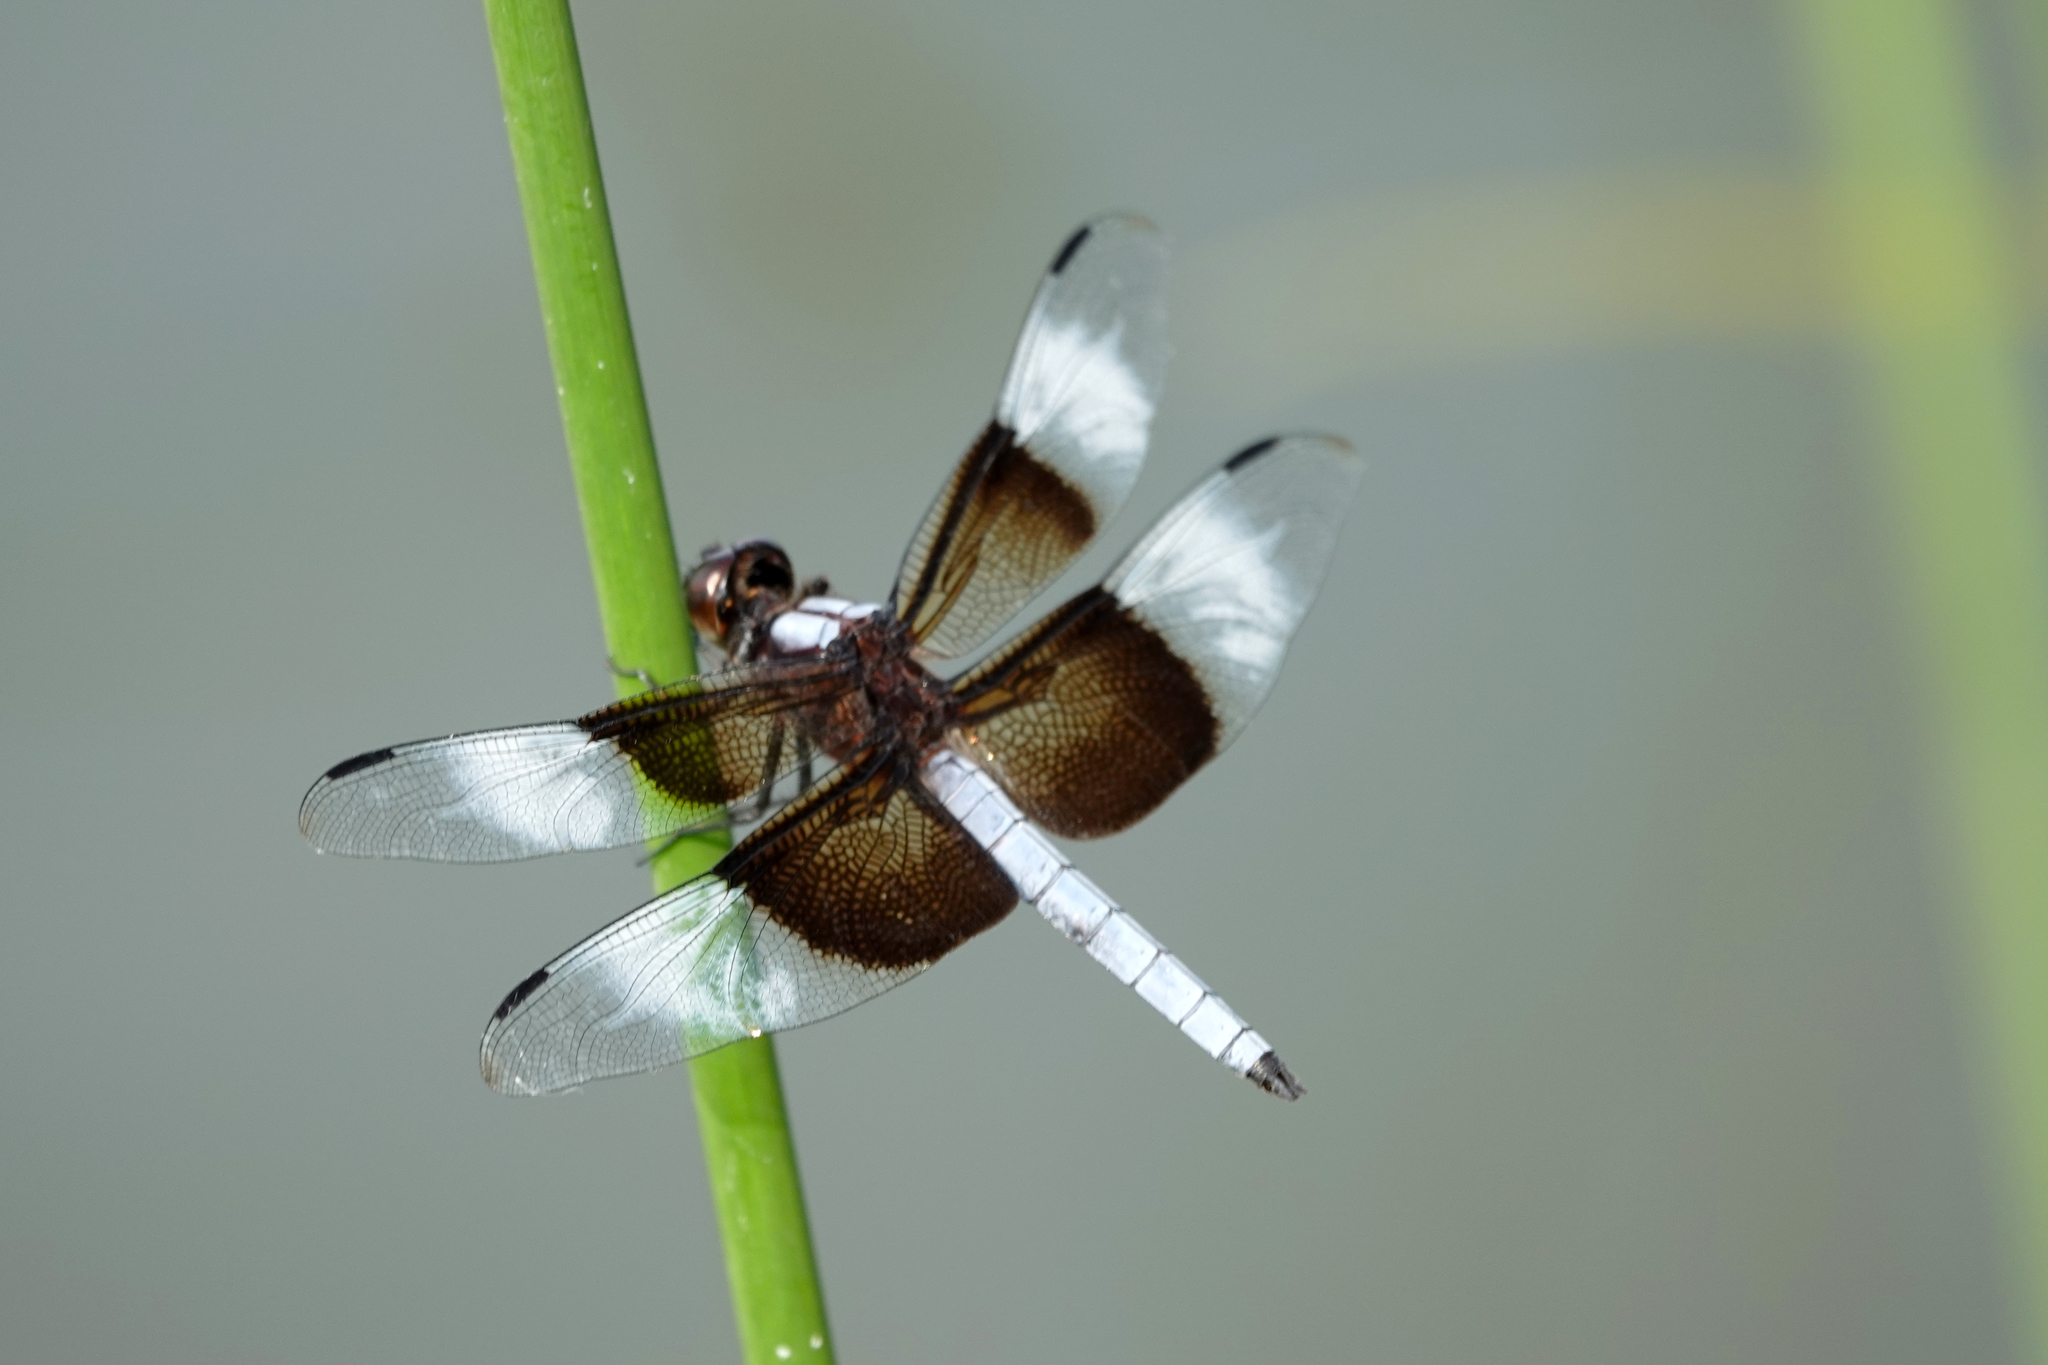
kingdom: Animalia
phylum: Arthropoda
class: Insecta
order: Odonata
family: Libellulidae
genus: Libellula
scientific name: Libellula luctuosa
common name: Widow skimmer
